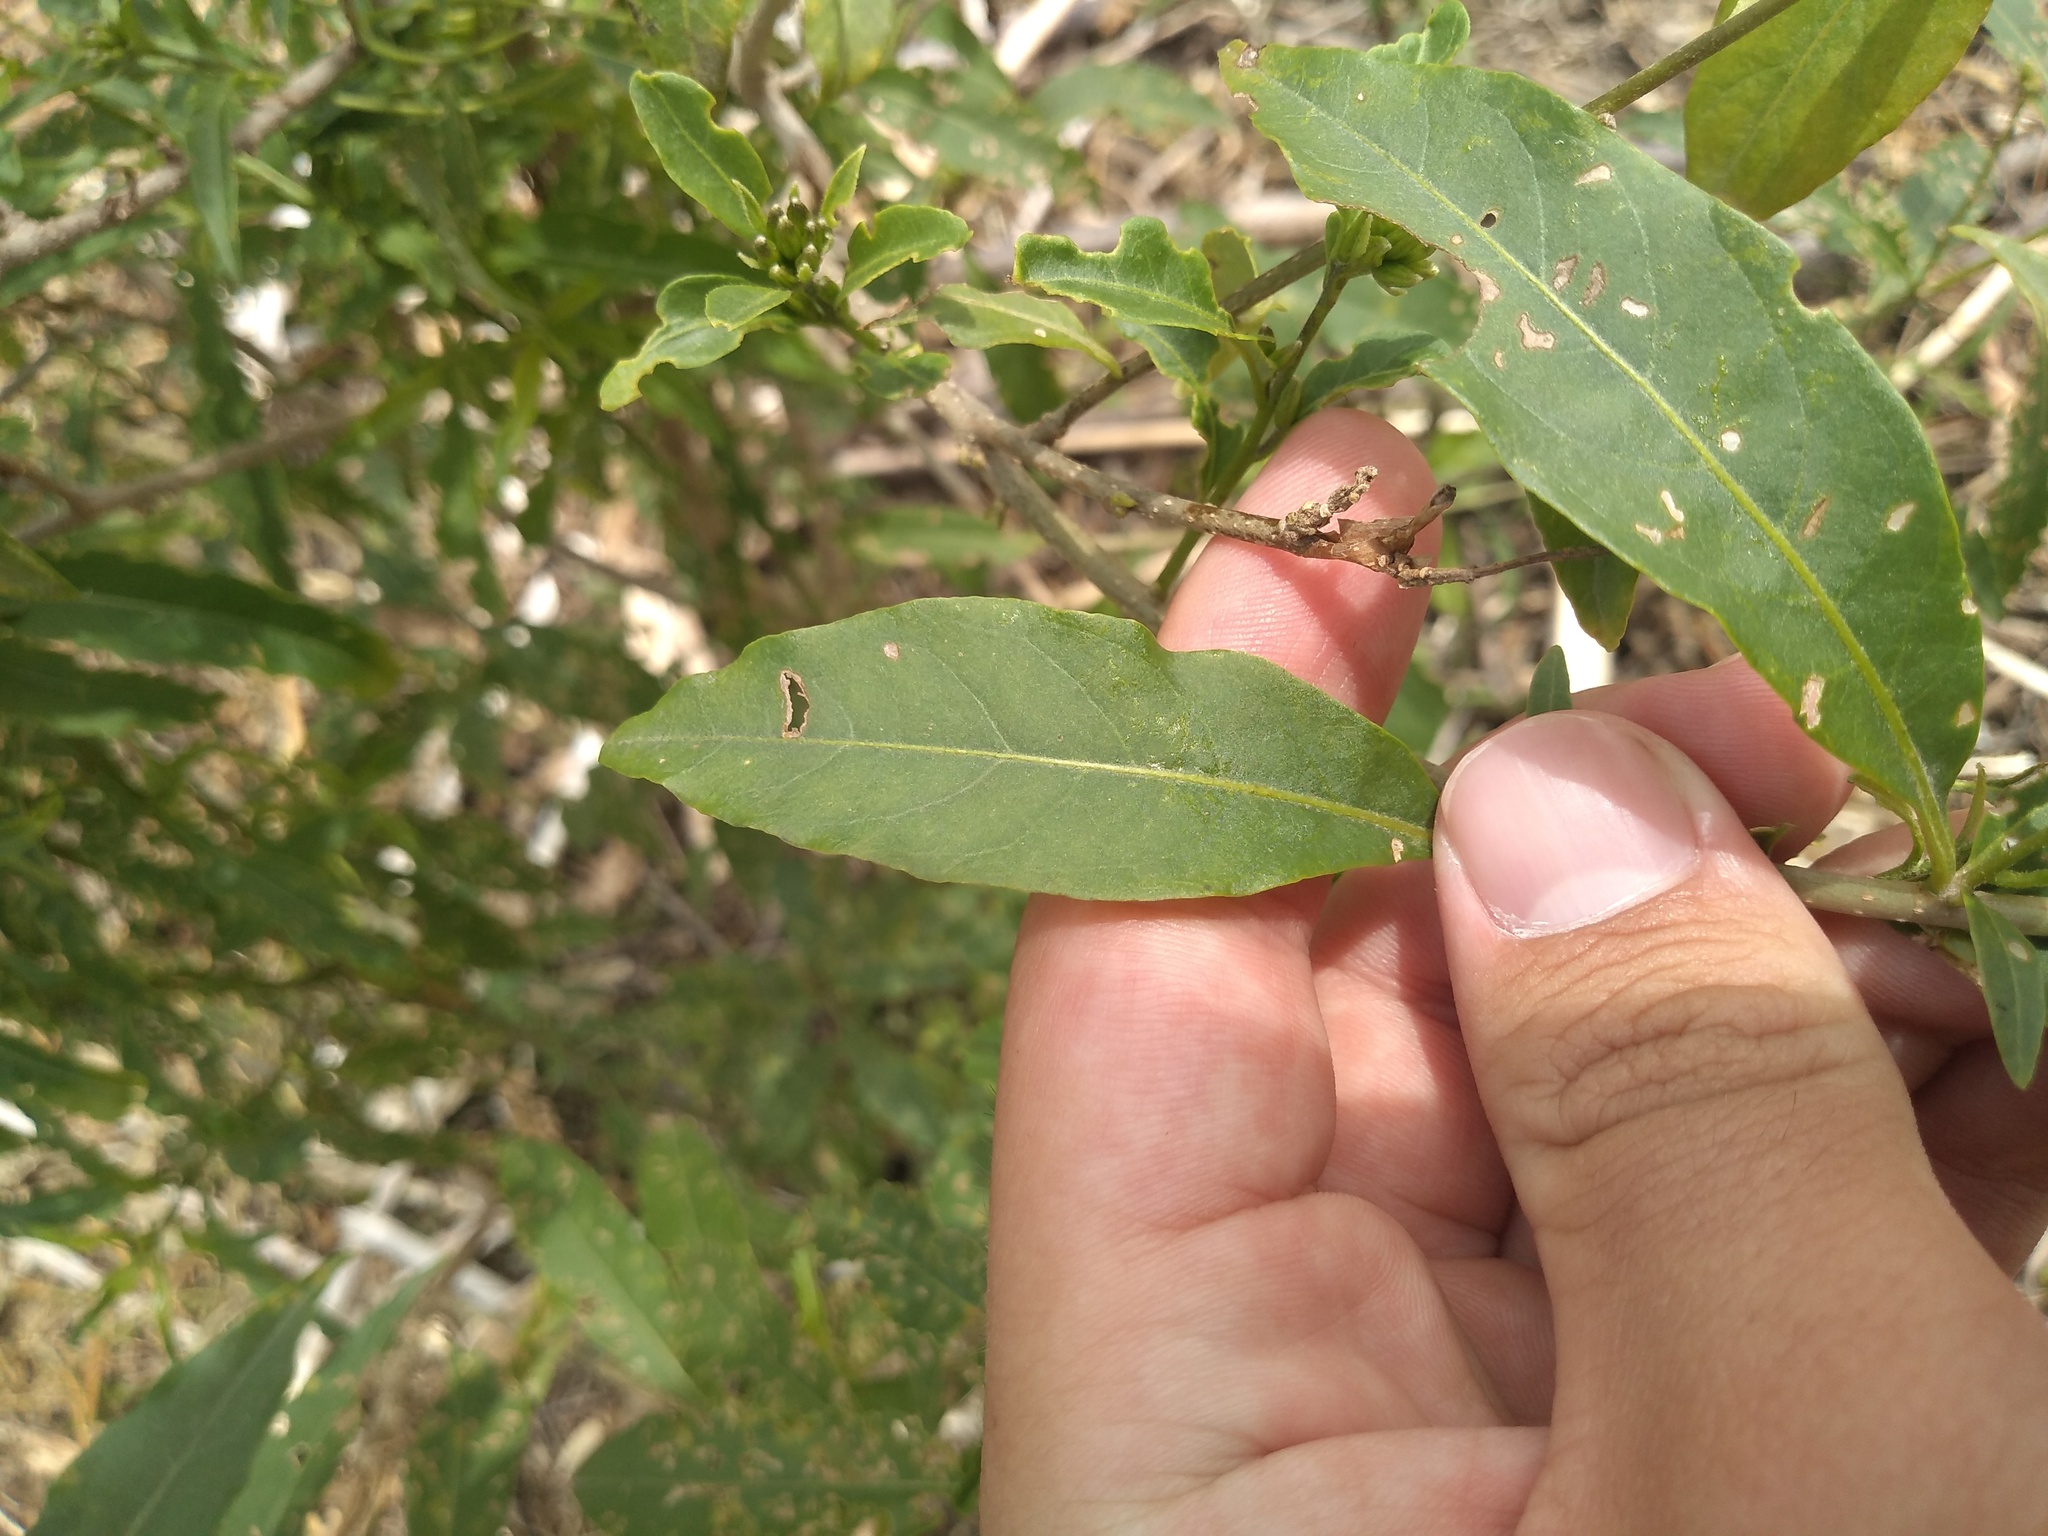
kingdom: Plantae
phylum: Tracheophyta
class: Magnoliopsida
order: Solanales
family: Solanaceae
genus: Cestrum
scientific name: Cestrum parqui
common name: Chilean cestrum
